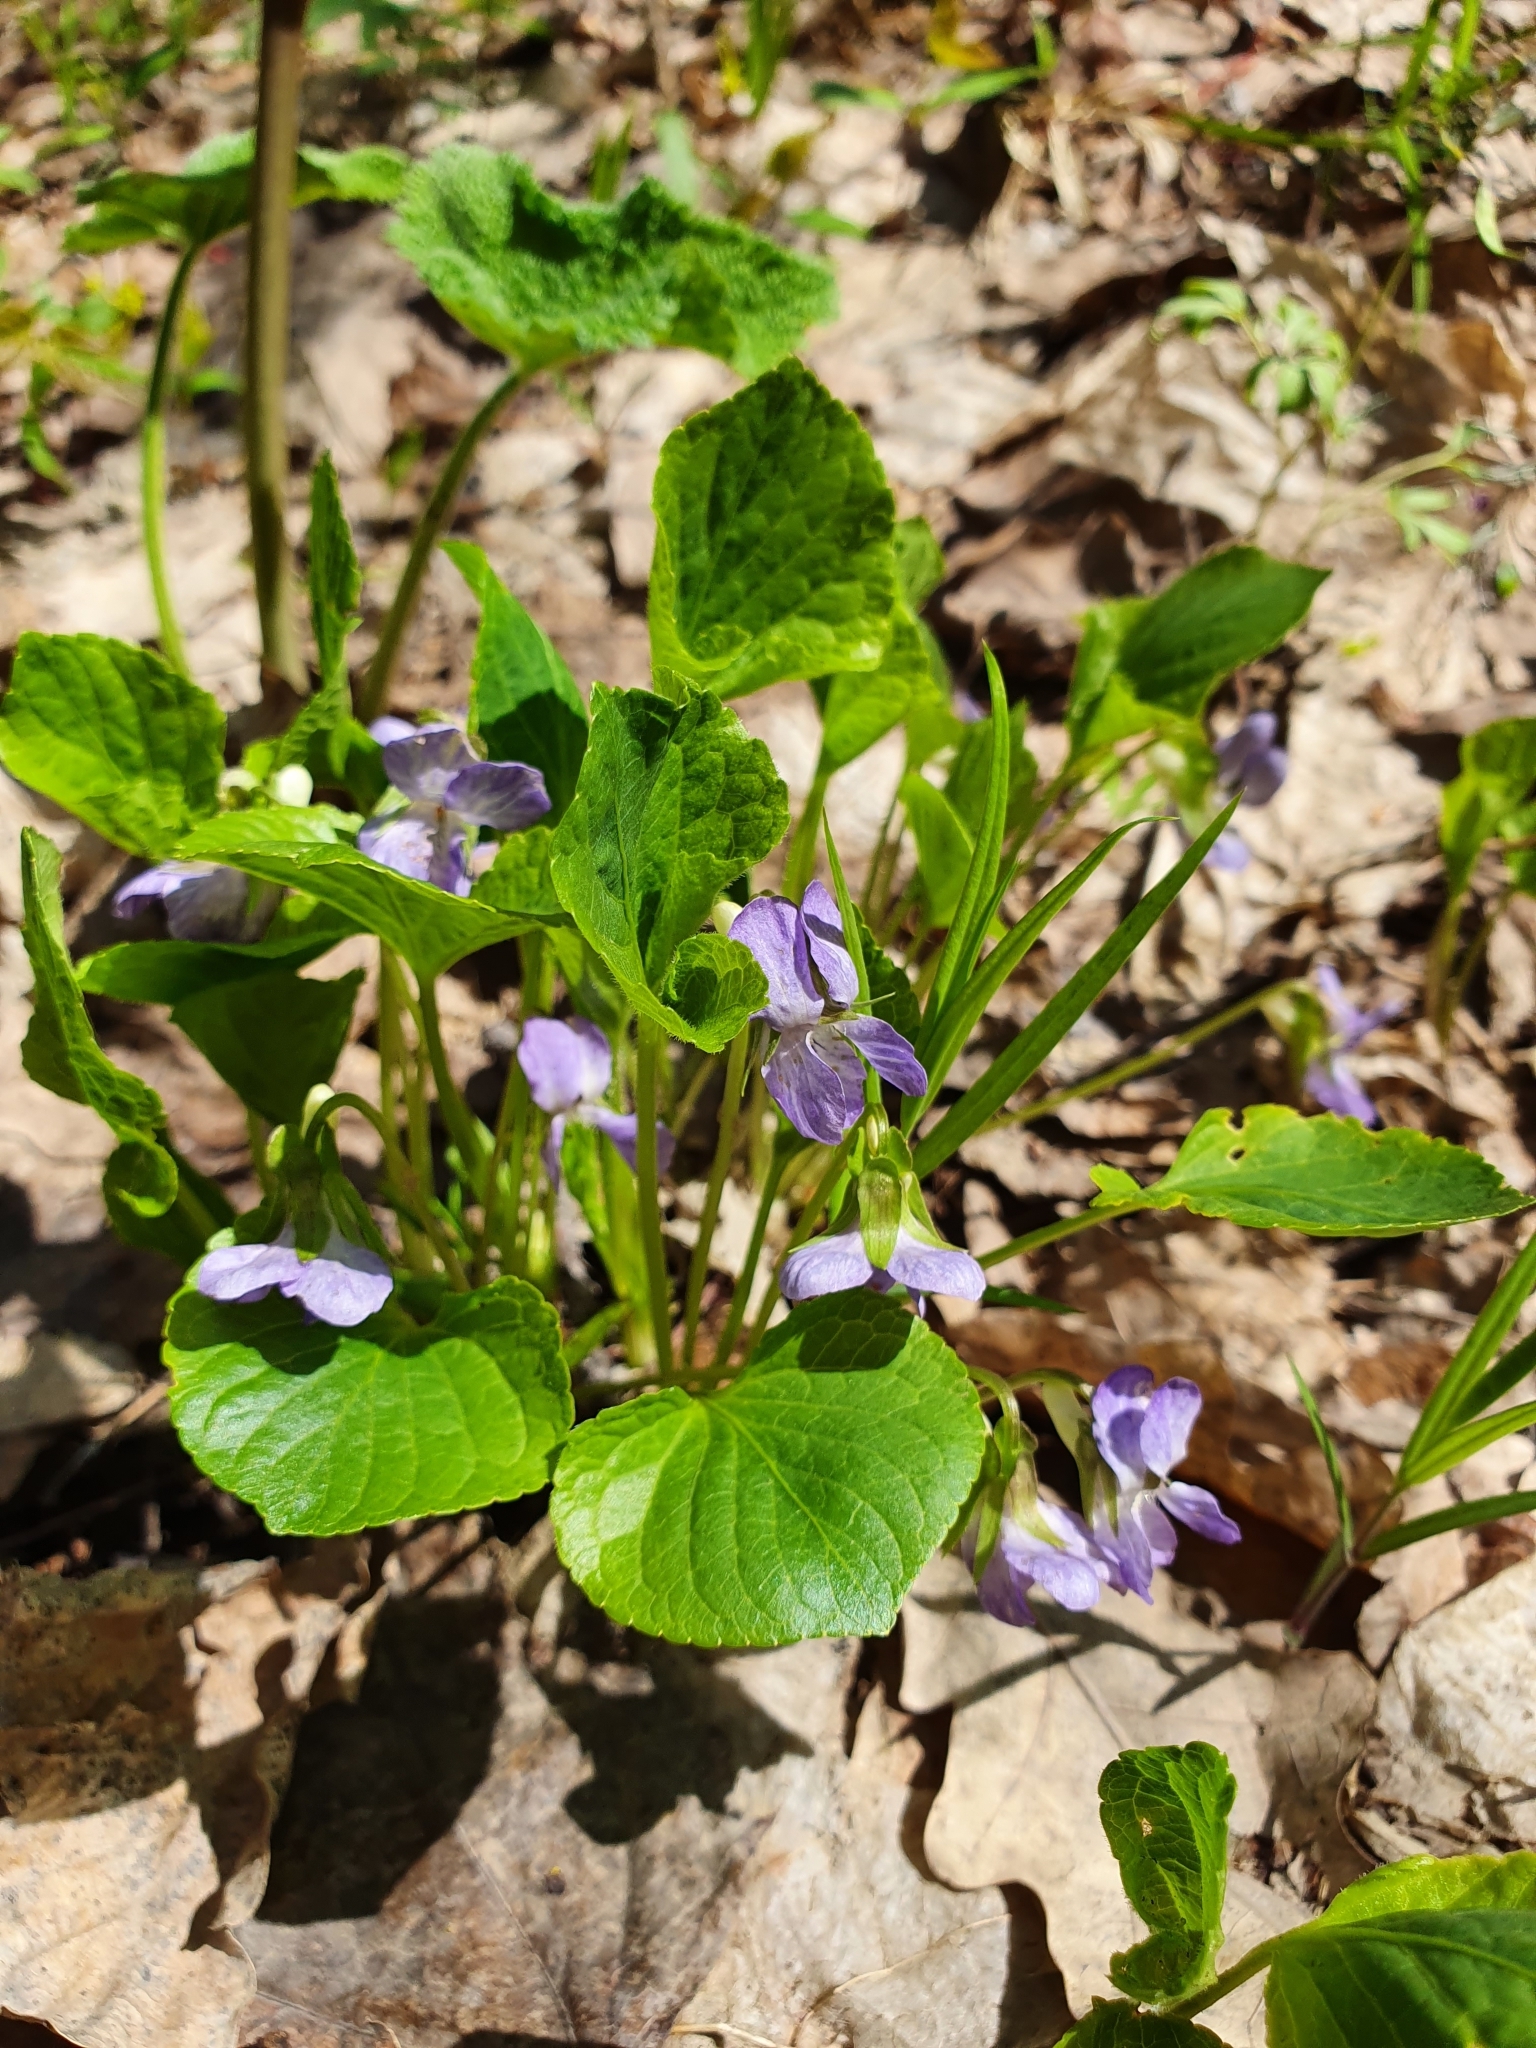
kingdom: Plantae
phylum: Tracheophyta
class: Magnoliopsida
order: Malpighiales
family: Violaceae
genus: Viola
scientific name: Viola mirabilis
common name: Wonder violet
